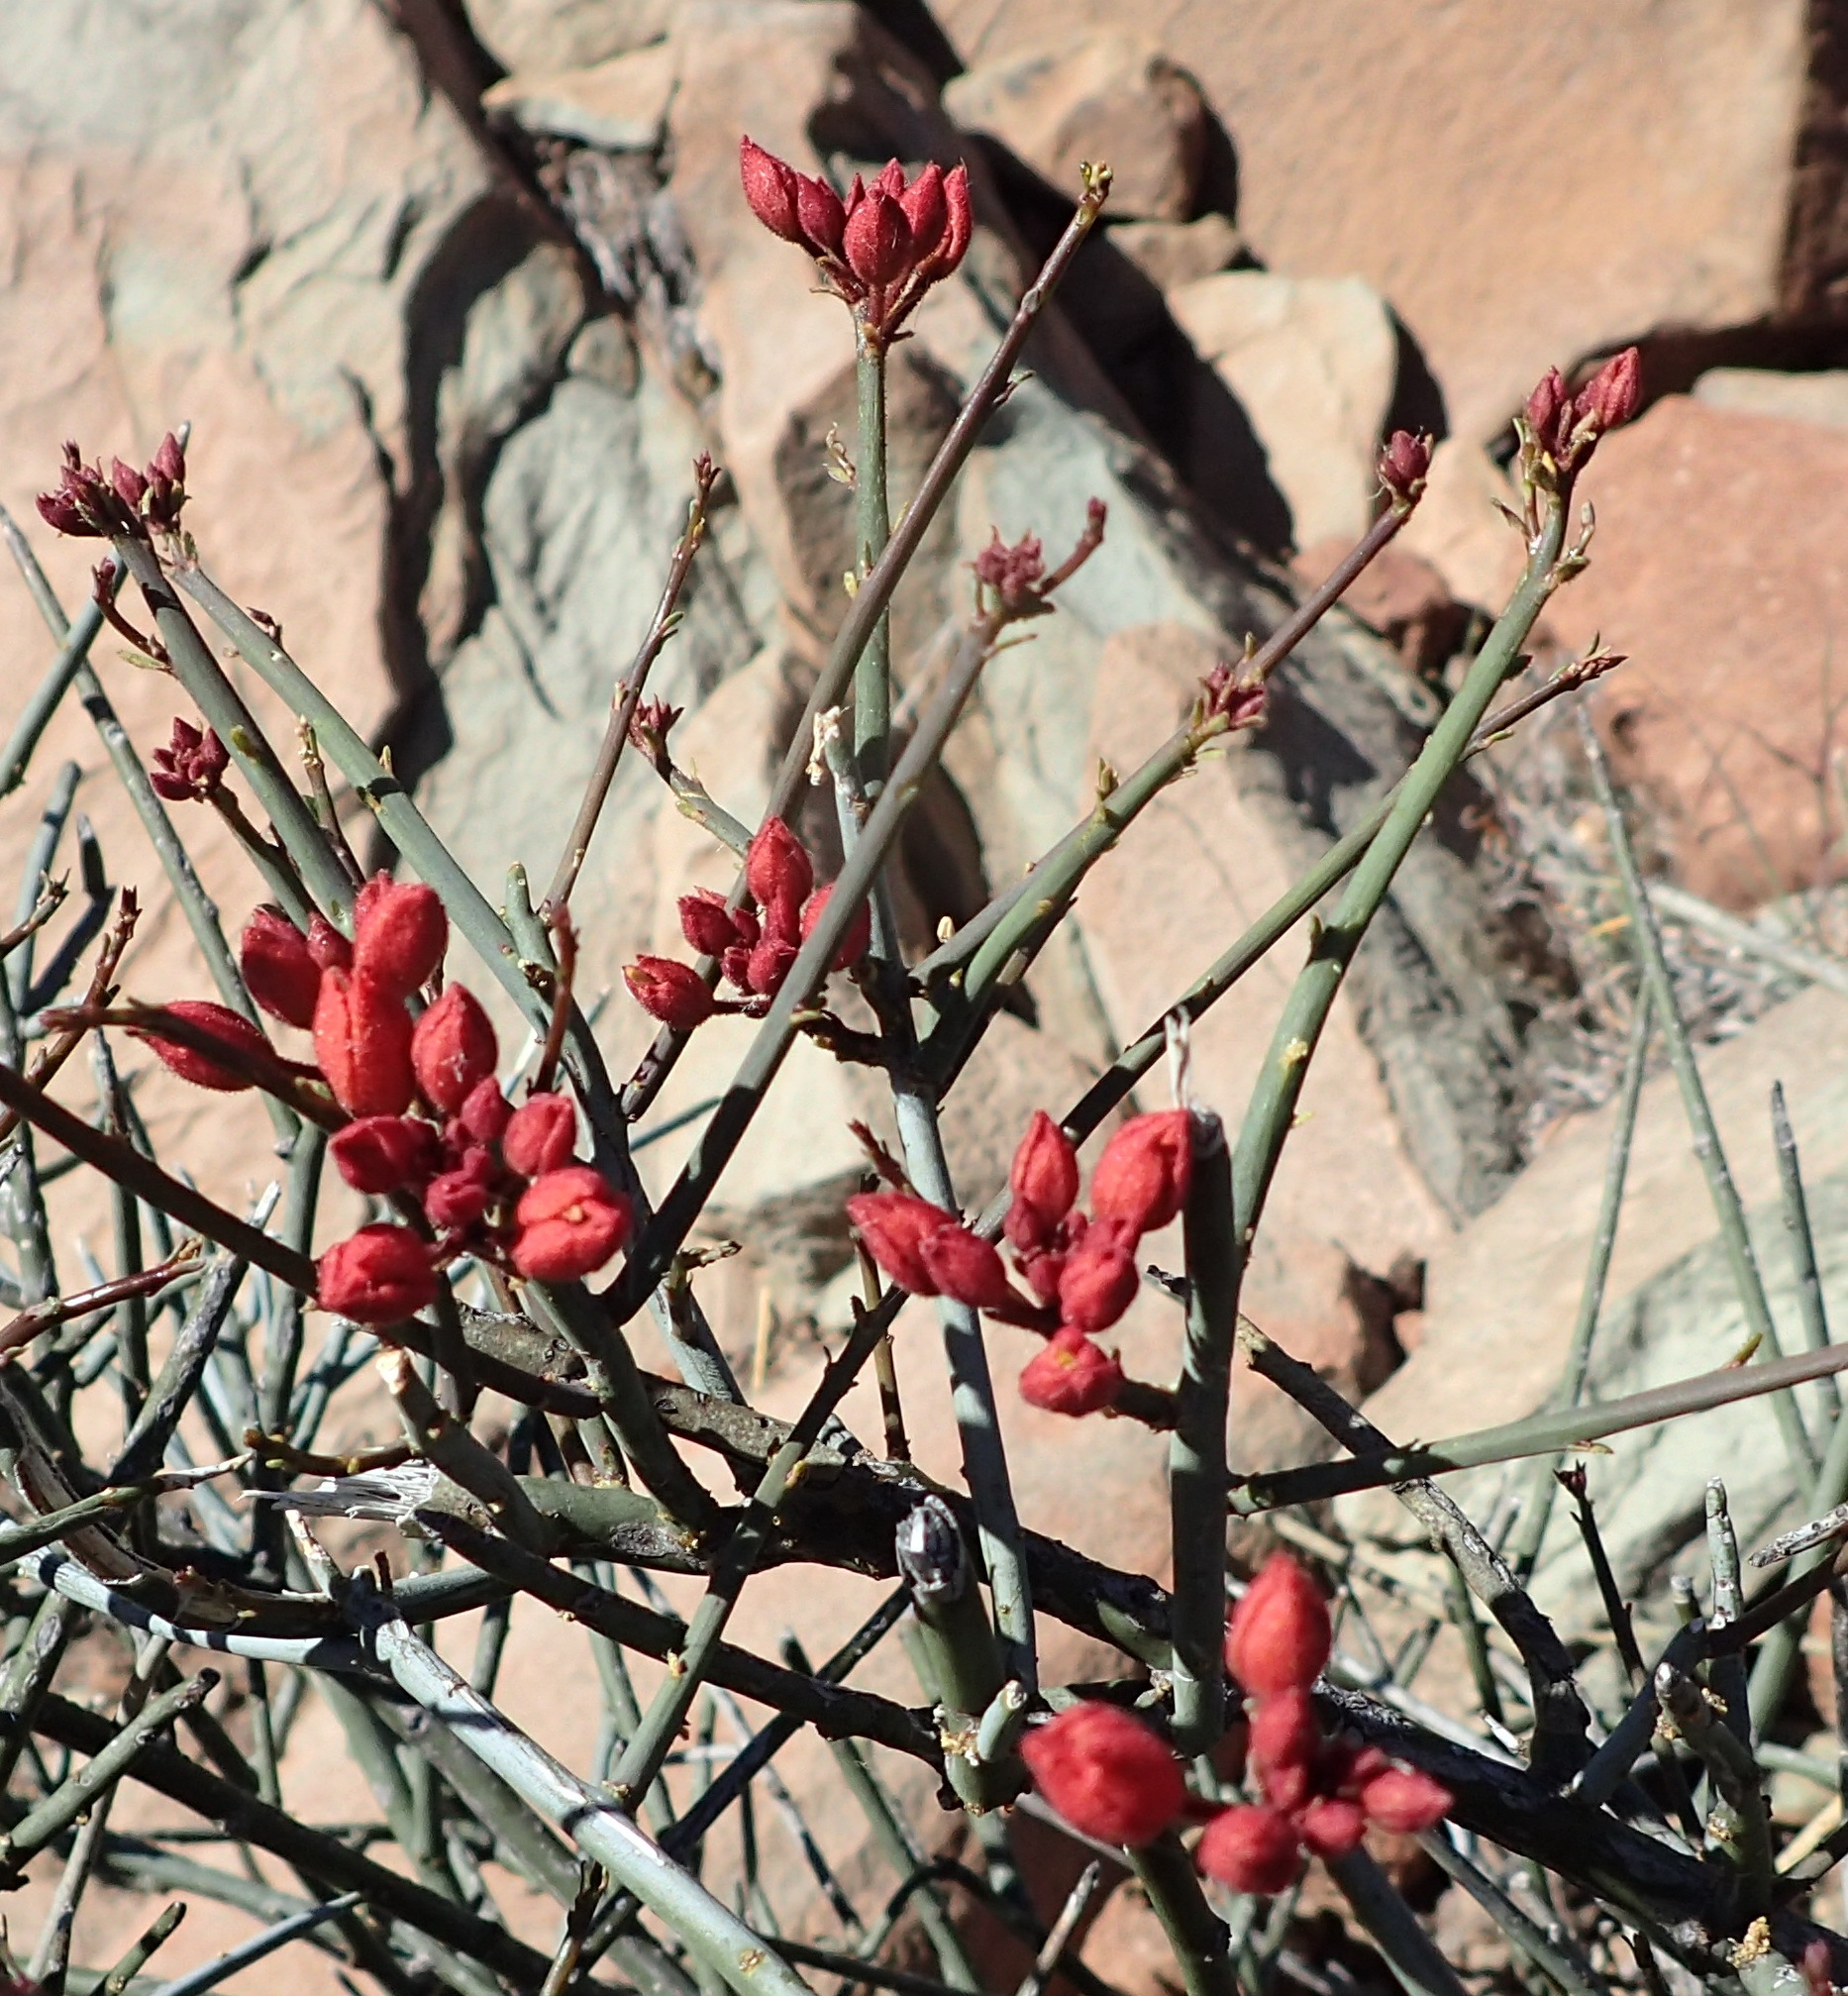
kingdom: Plantae
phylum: Tracheophyta
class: Magnoliopsida
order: Brassicales
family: Capparaceae
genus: Cadaba
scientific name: Cadaba aphylla
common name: Black storm
